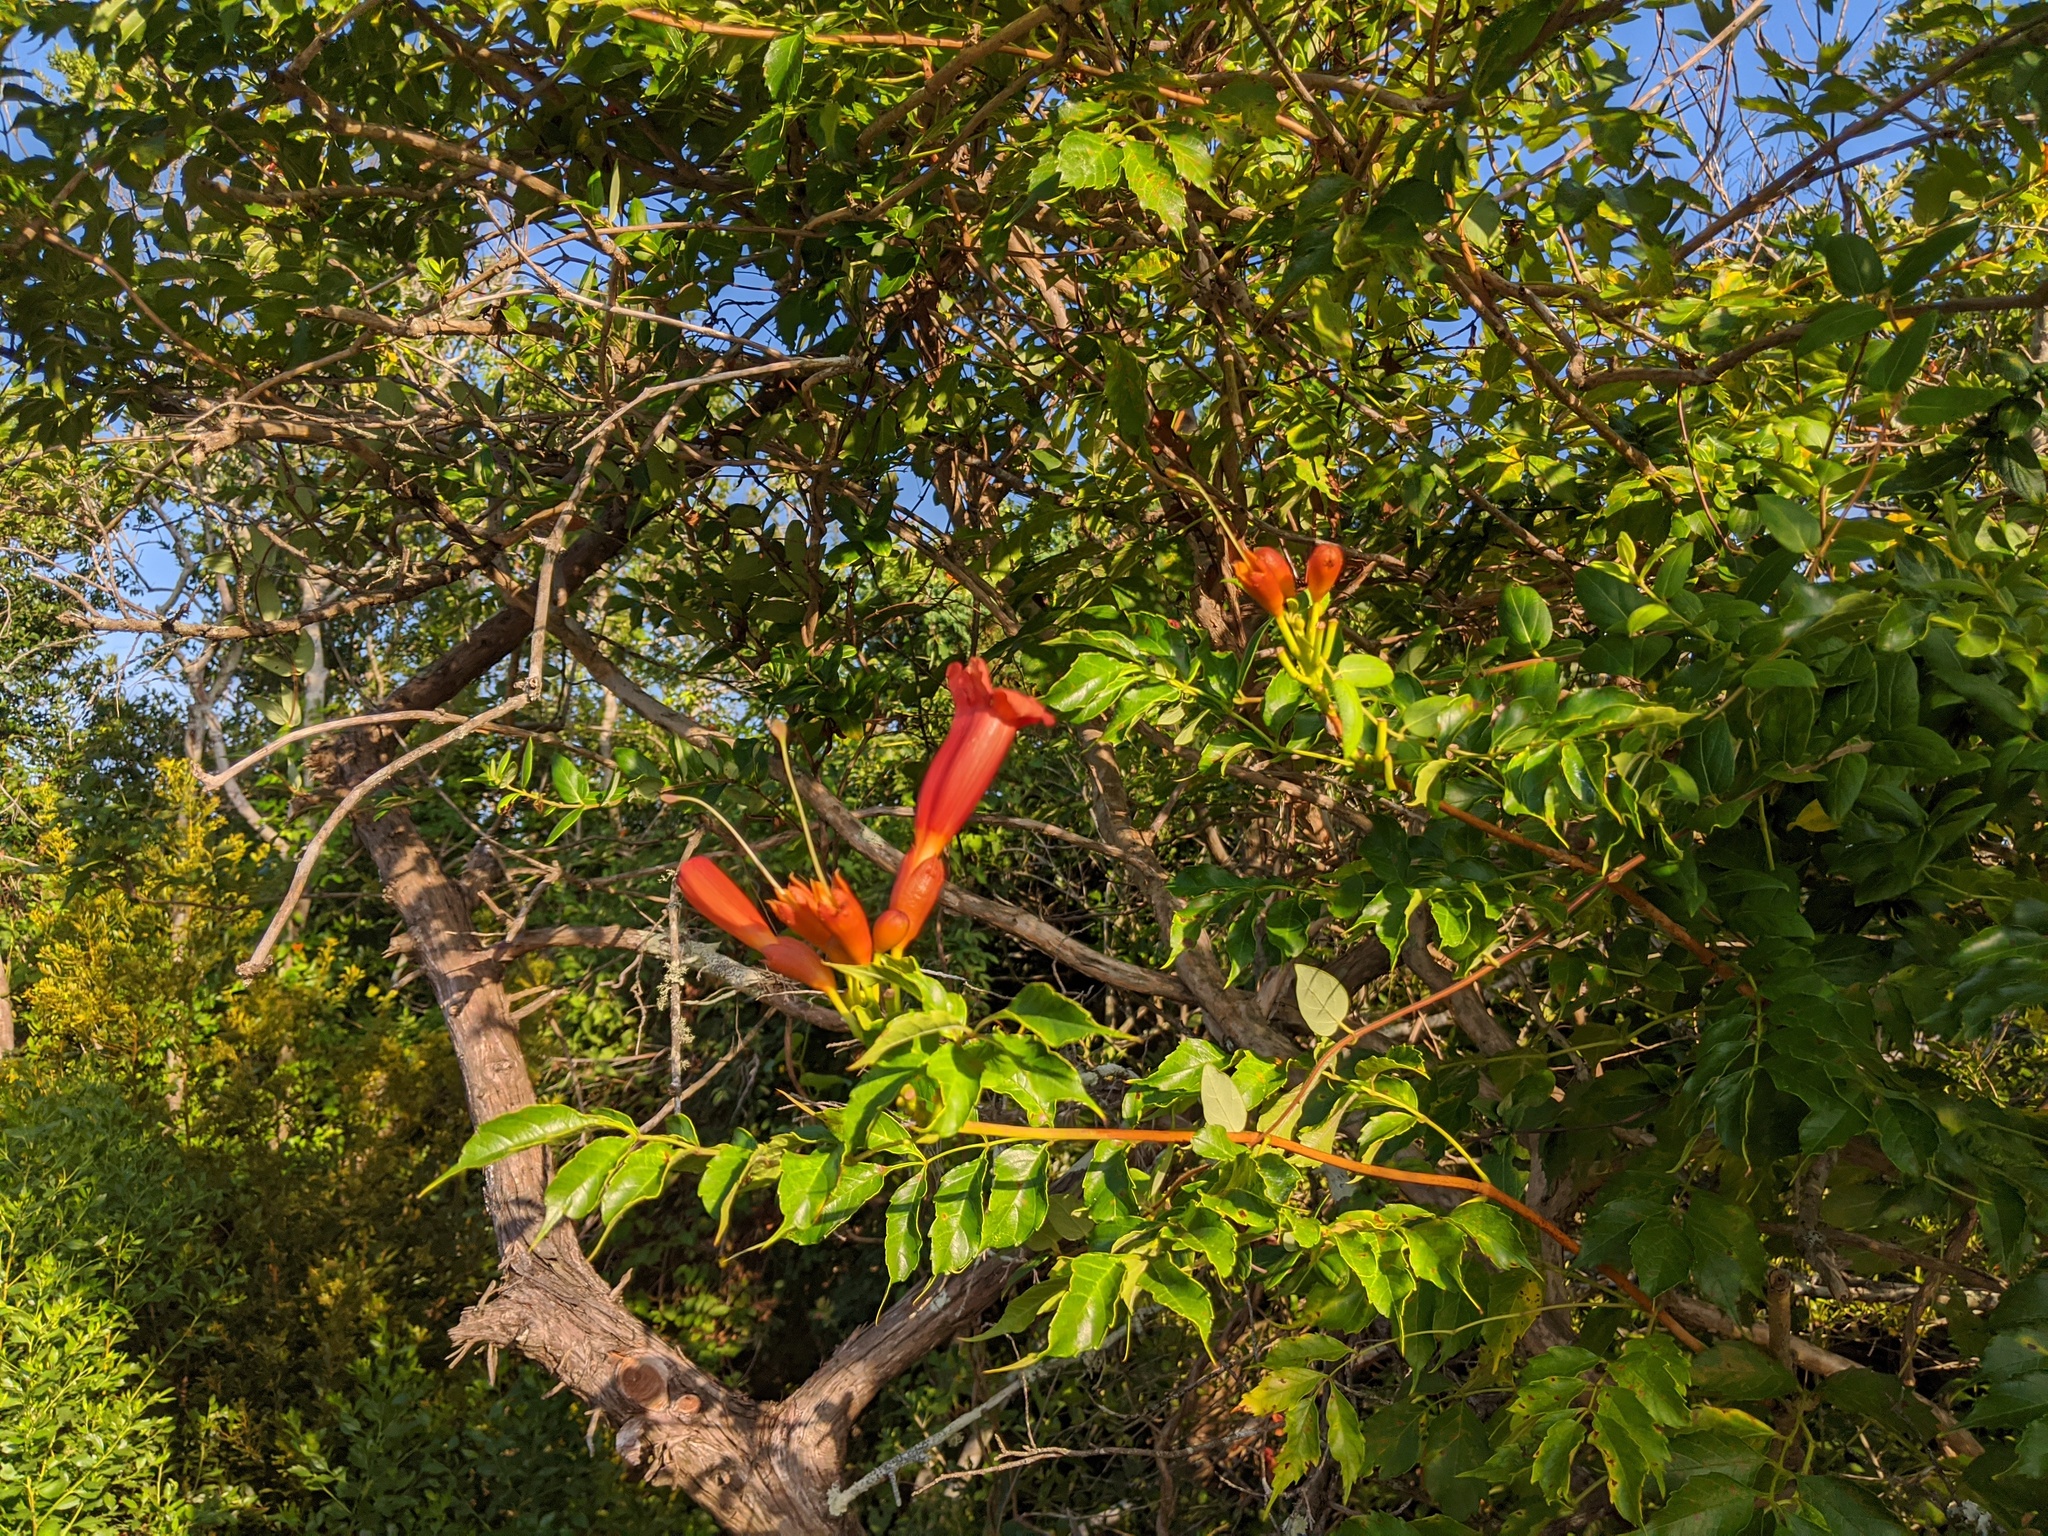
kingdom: Plantae
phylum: Tracheophyta
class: Magnoliopsida
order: Lamiales
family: Bignoniaceae
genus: Campsis
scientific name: Campsis radicans
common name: Trumpet-creeper
